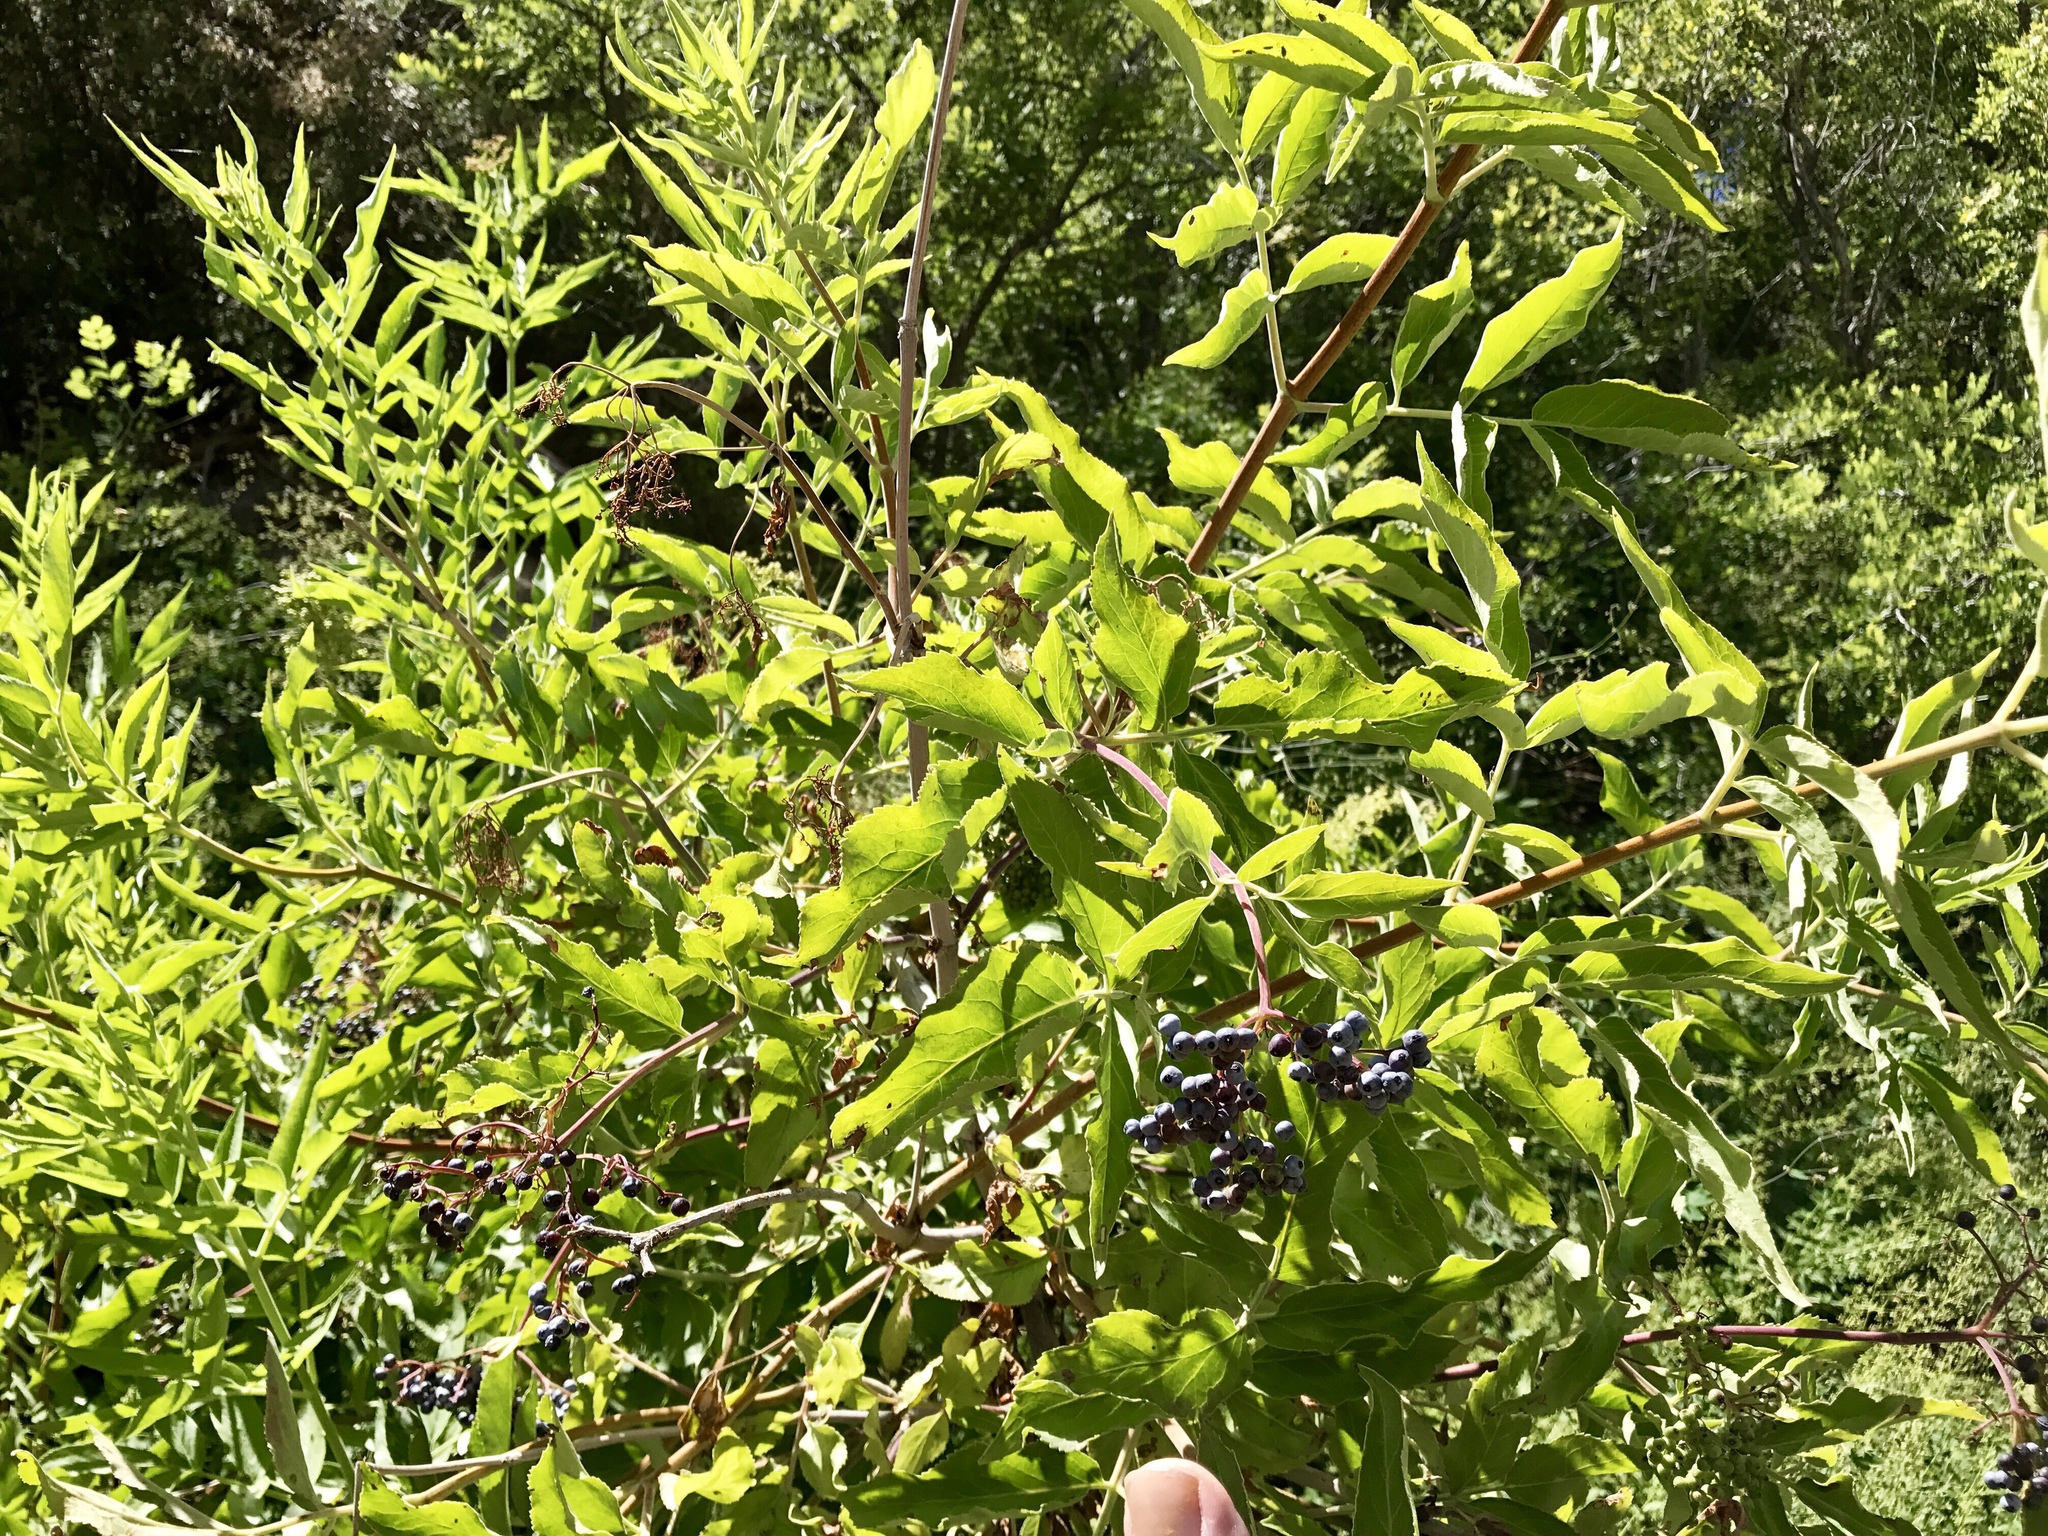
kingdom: Plantae
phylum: Tracheophyta
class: Magnoliopsida
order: Dipsacales
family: Viburnaceae
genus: Sambucus
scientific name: Sambucus cerulea
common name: Blue elder
